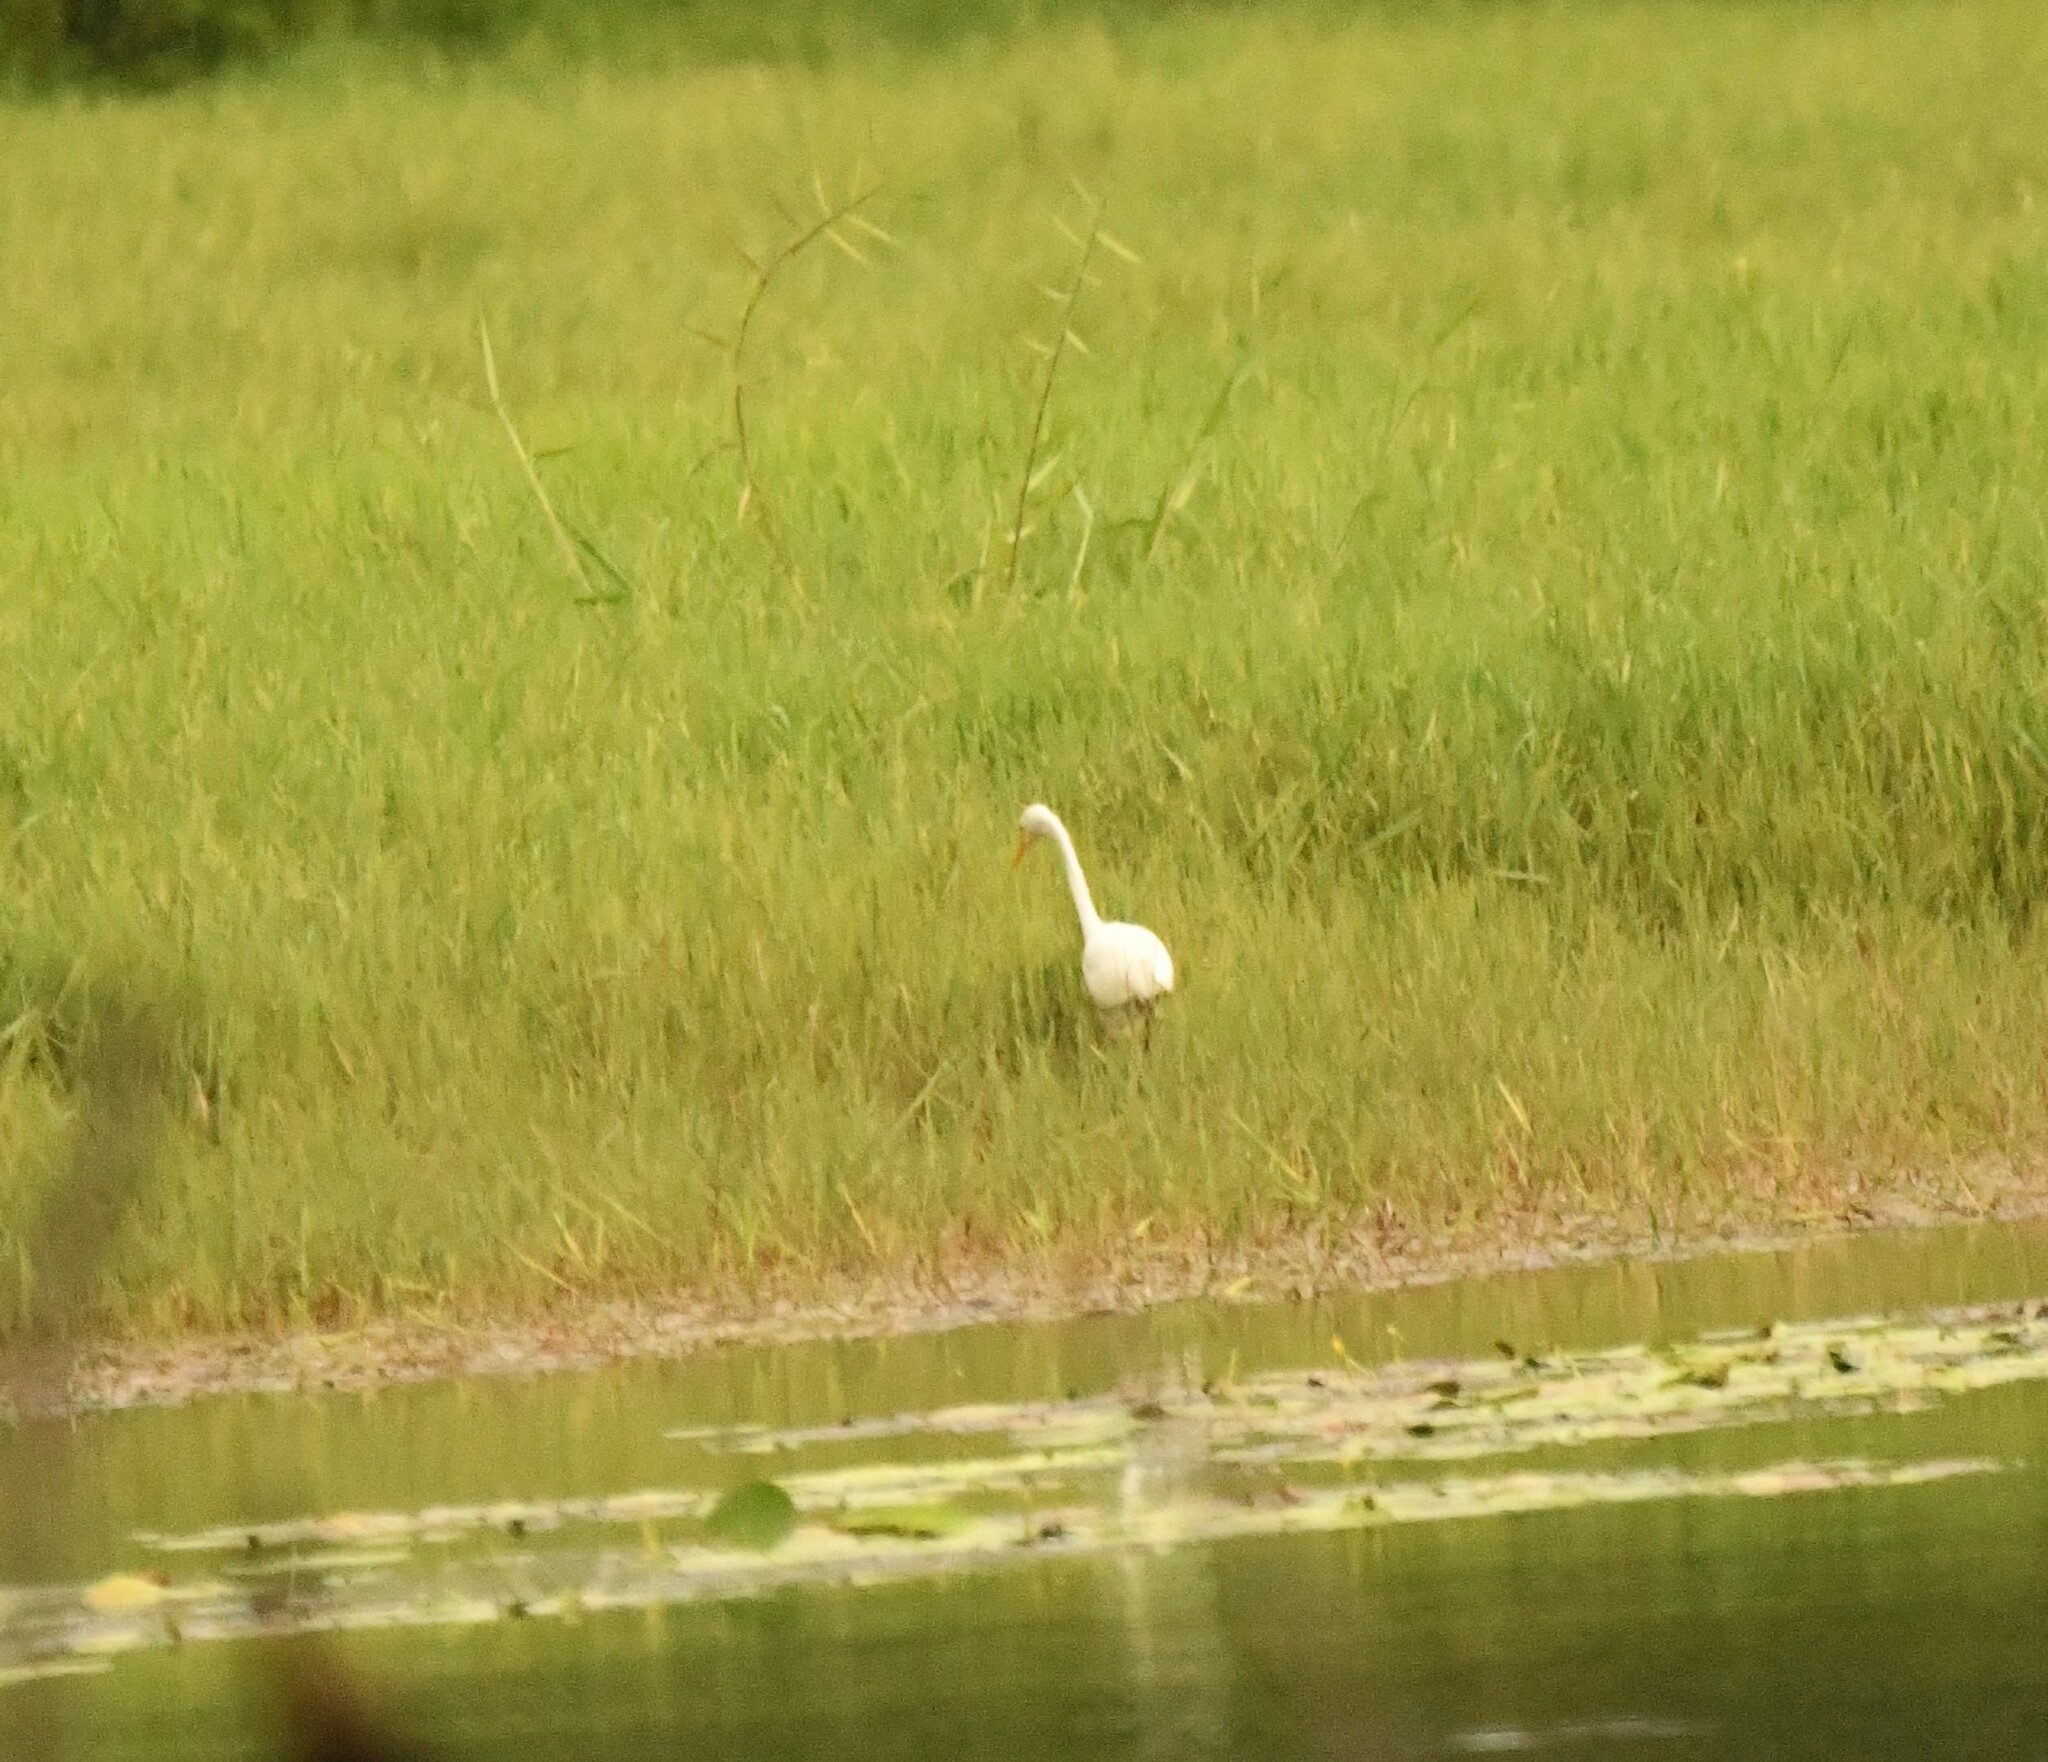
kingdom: Animalia
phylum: Chordata
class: Aves
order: Pelecaniformes
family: Ardeidae
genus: Ardea
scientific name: Ardea alba
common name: Great egret
